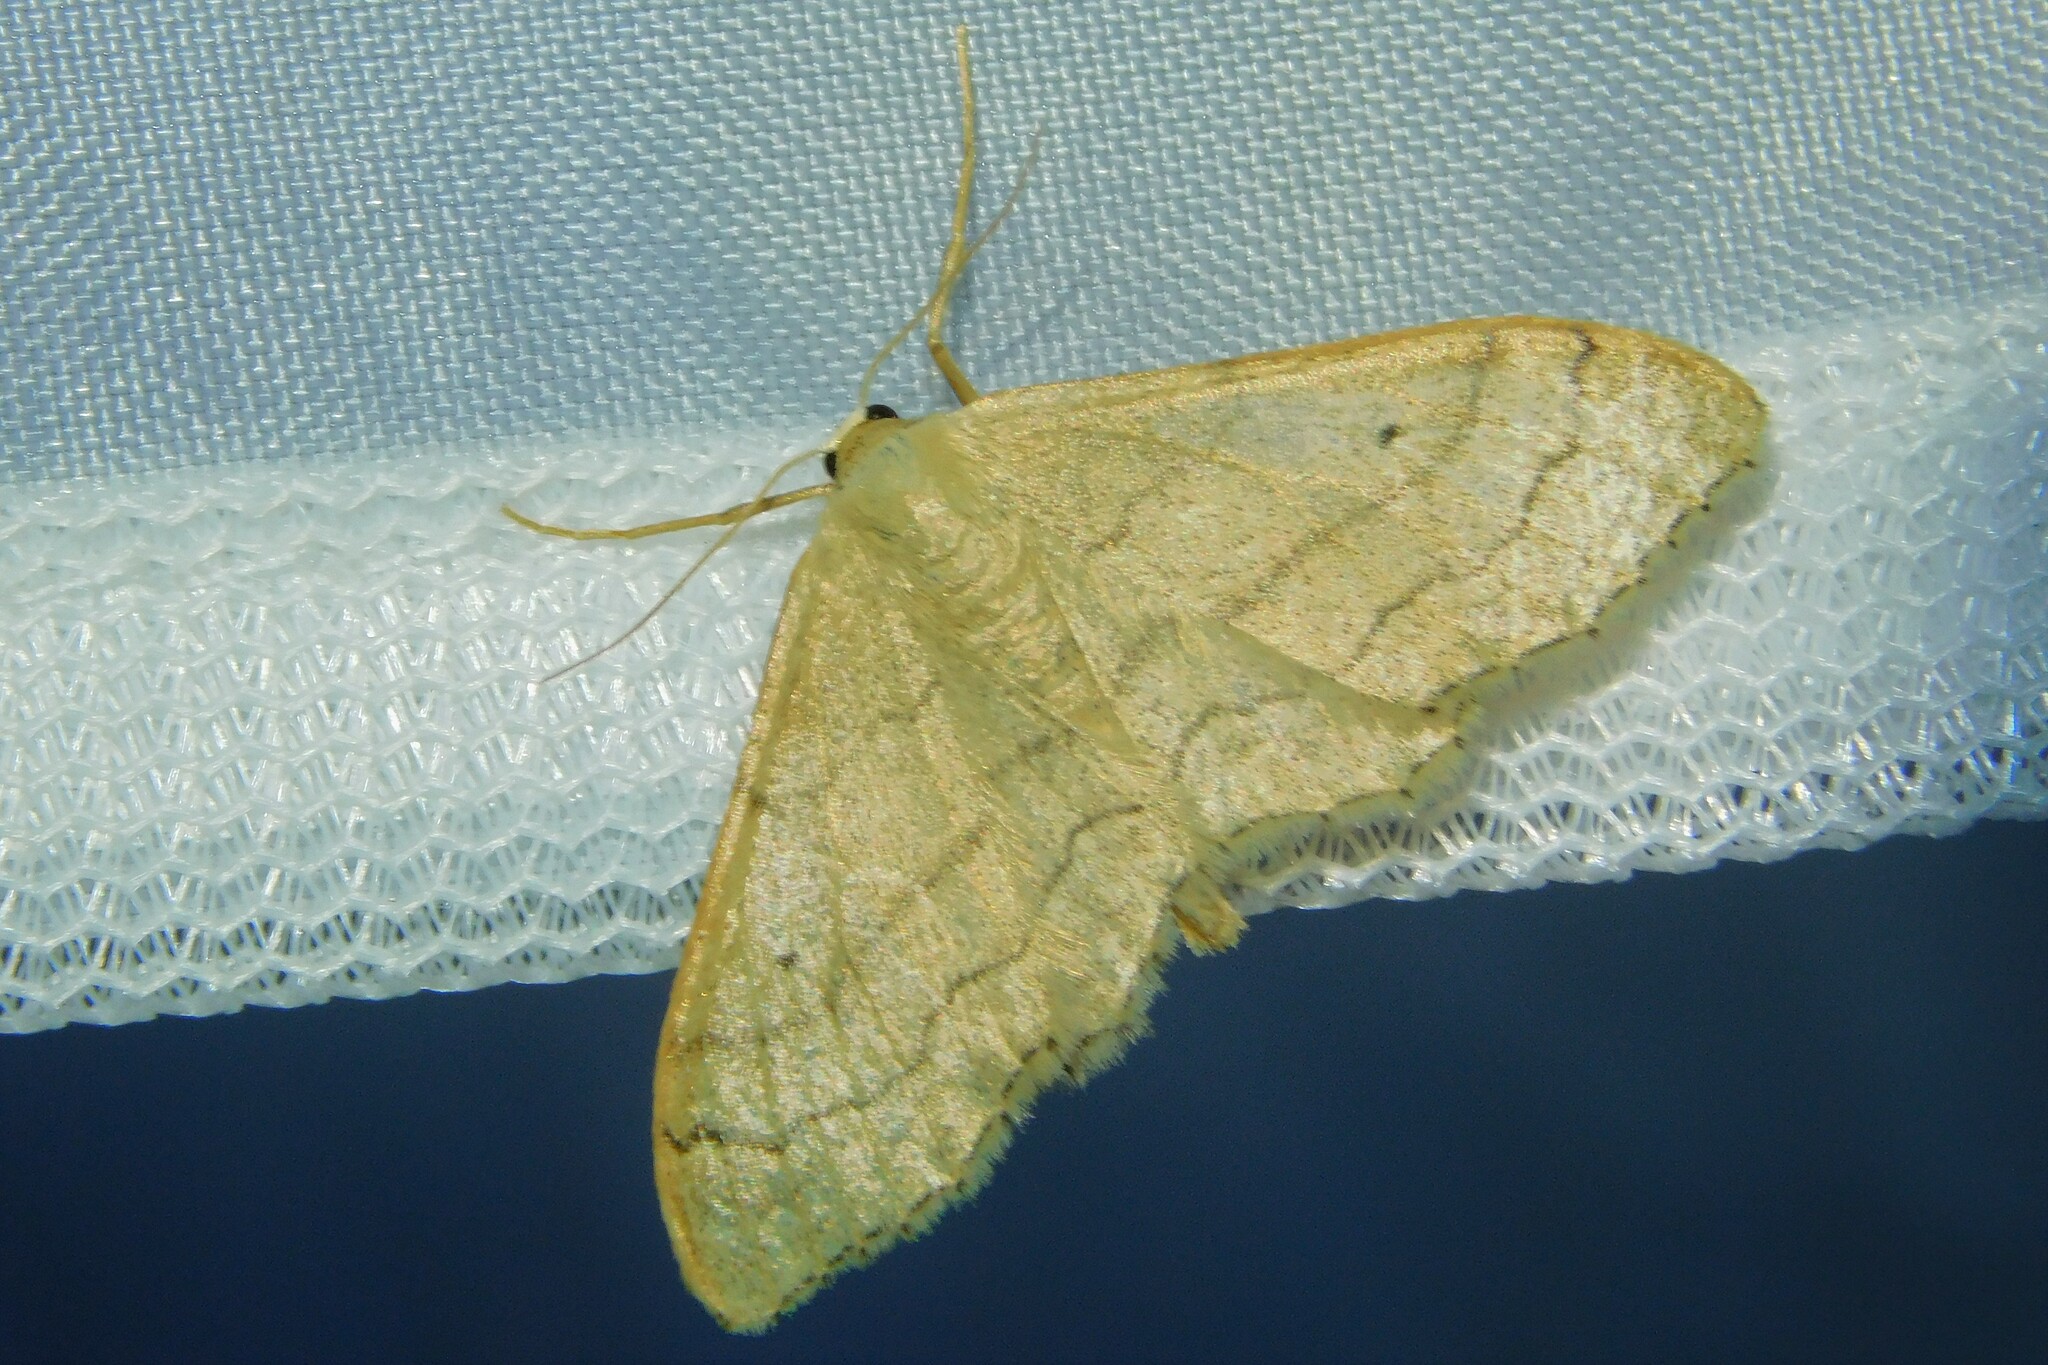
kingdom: Animalia
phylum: Arthropoda
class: Insecta
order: Lepidoptera
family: Geometridae
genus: Idaea
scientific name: Idaea aversata
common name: Riband wave
